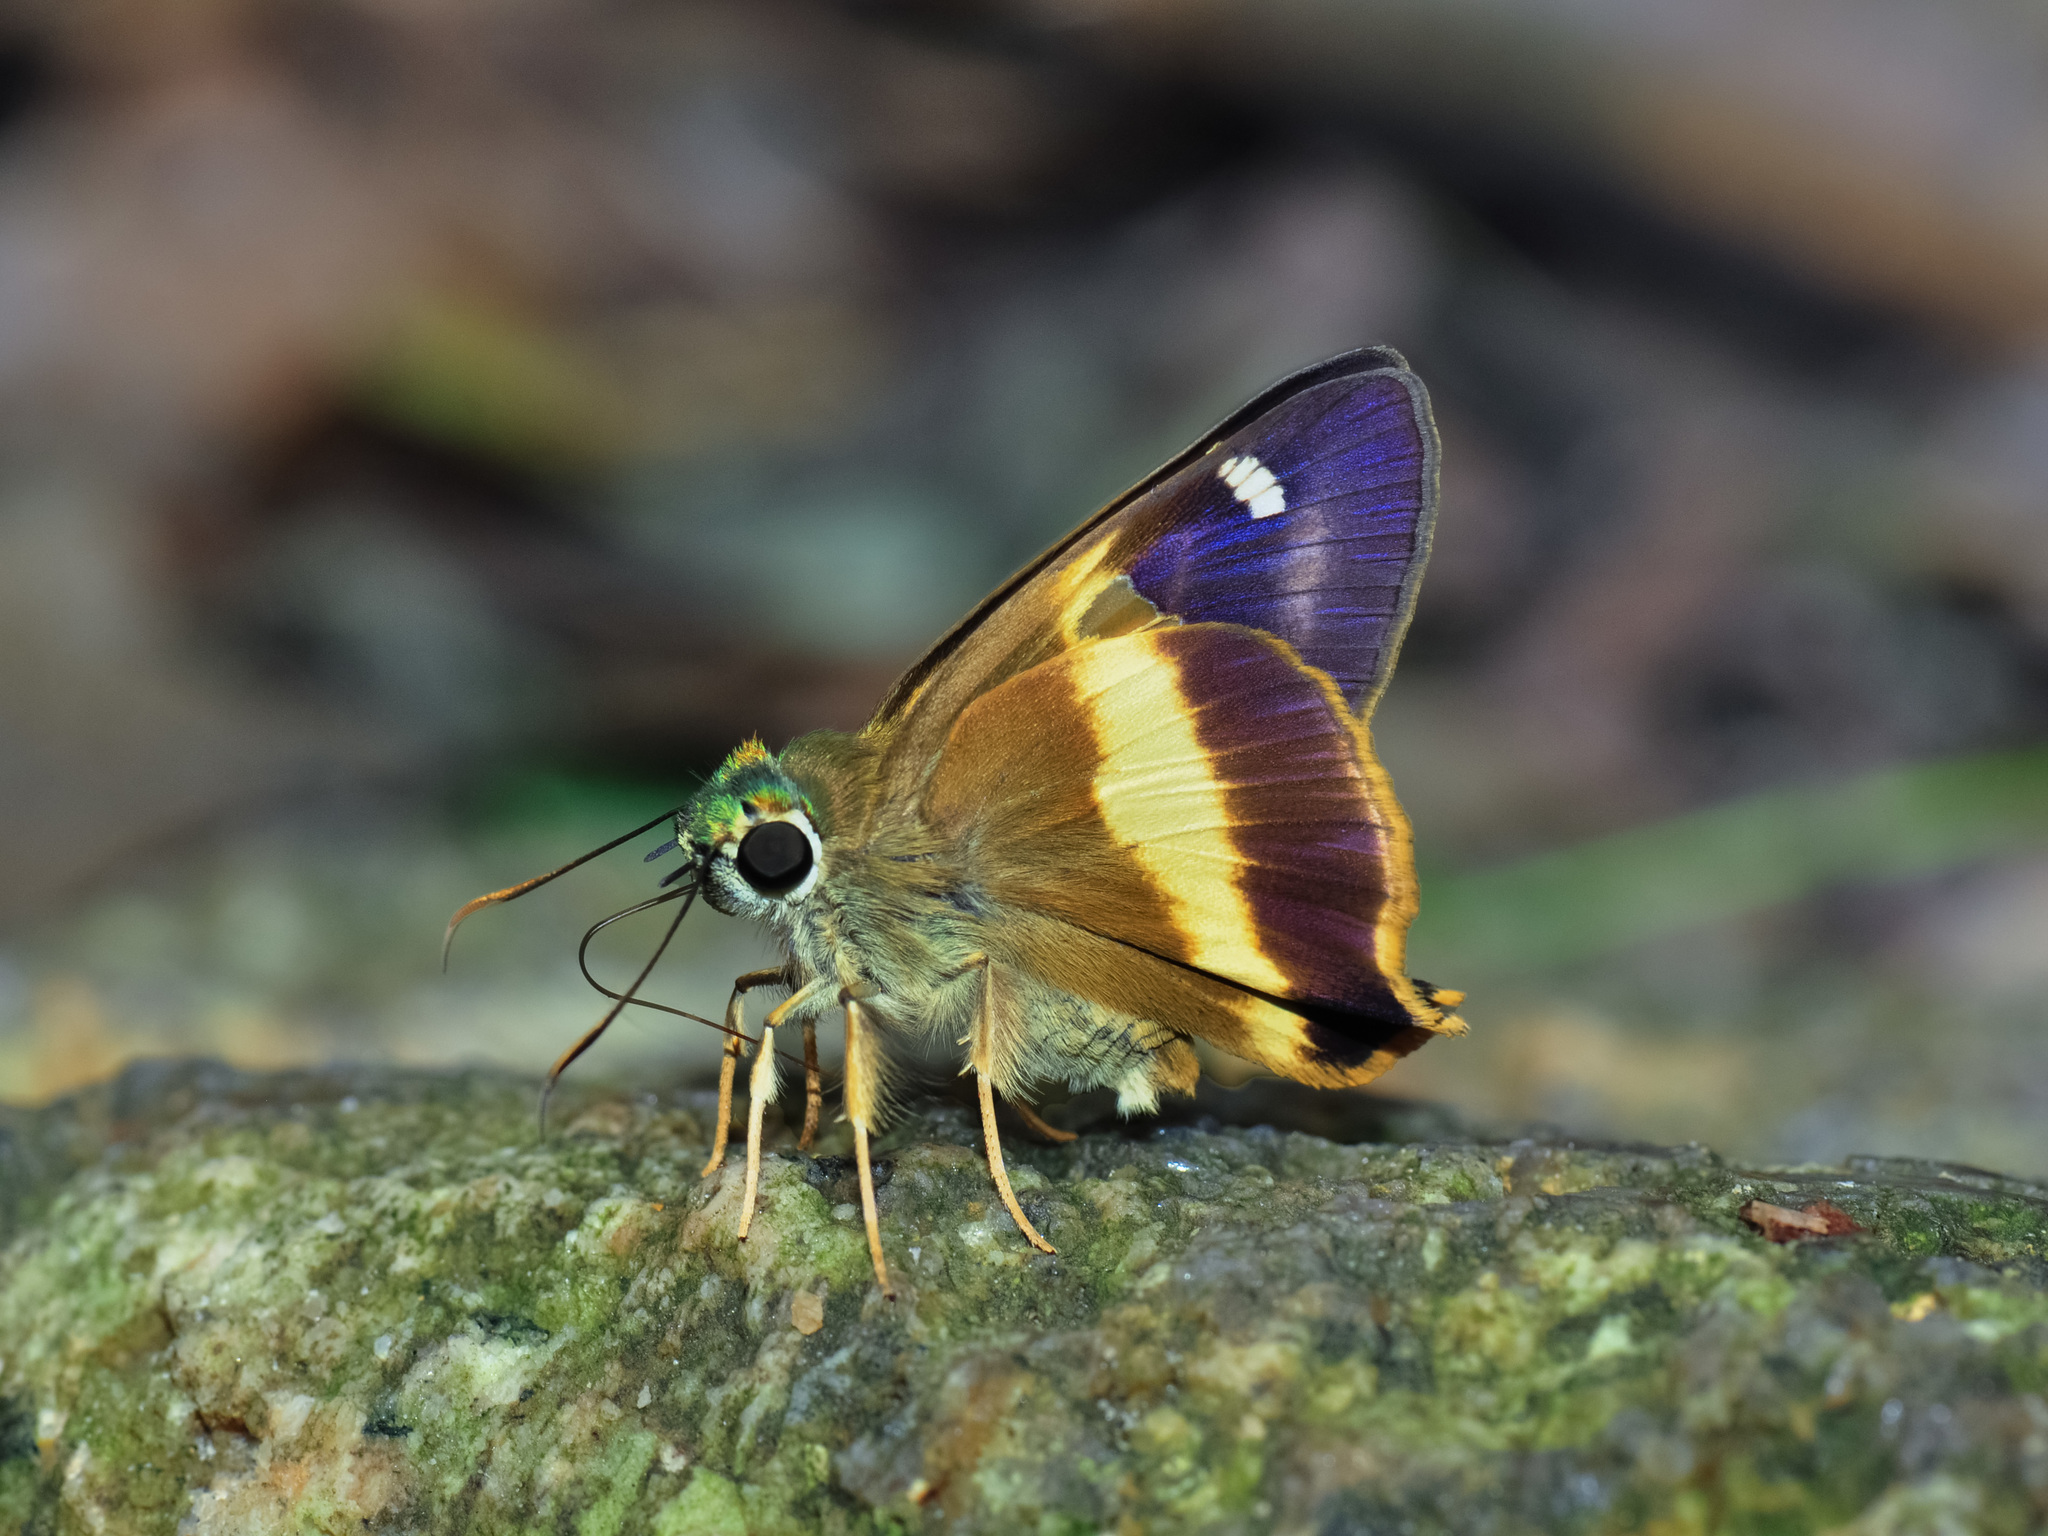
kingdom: Animalia
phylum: Arthropoda
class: Insecta
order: Lepidoptera
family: Hesperiidae
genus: Hasora
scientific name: Hasora schoenherr
